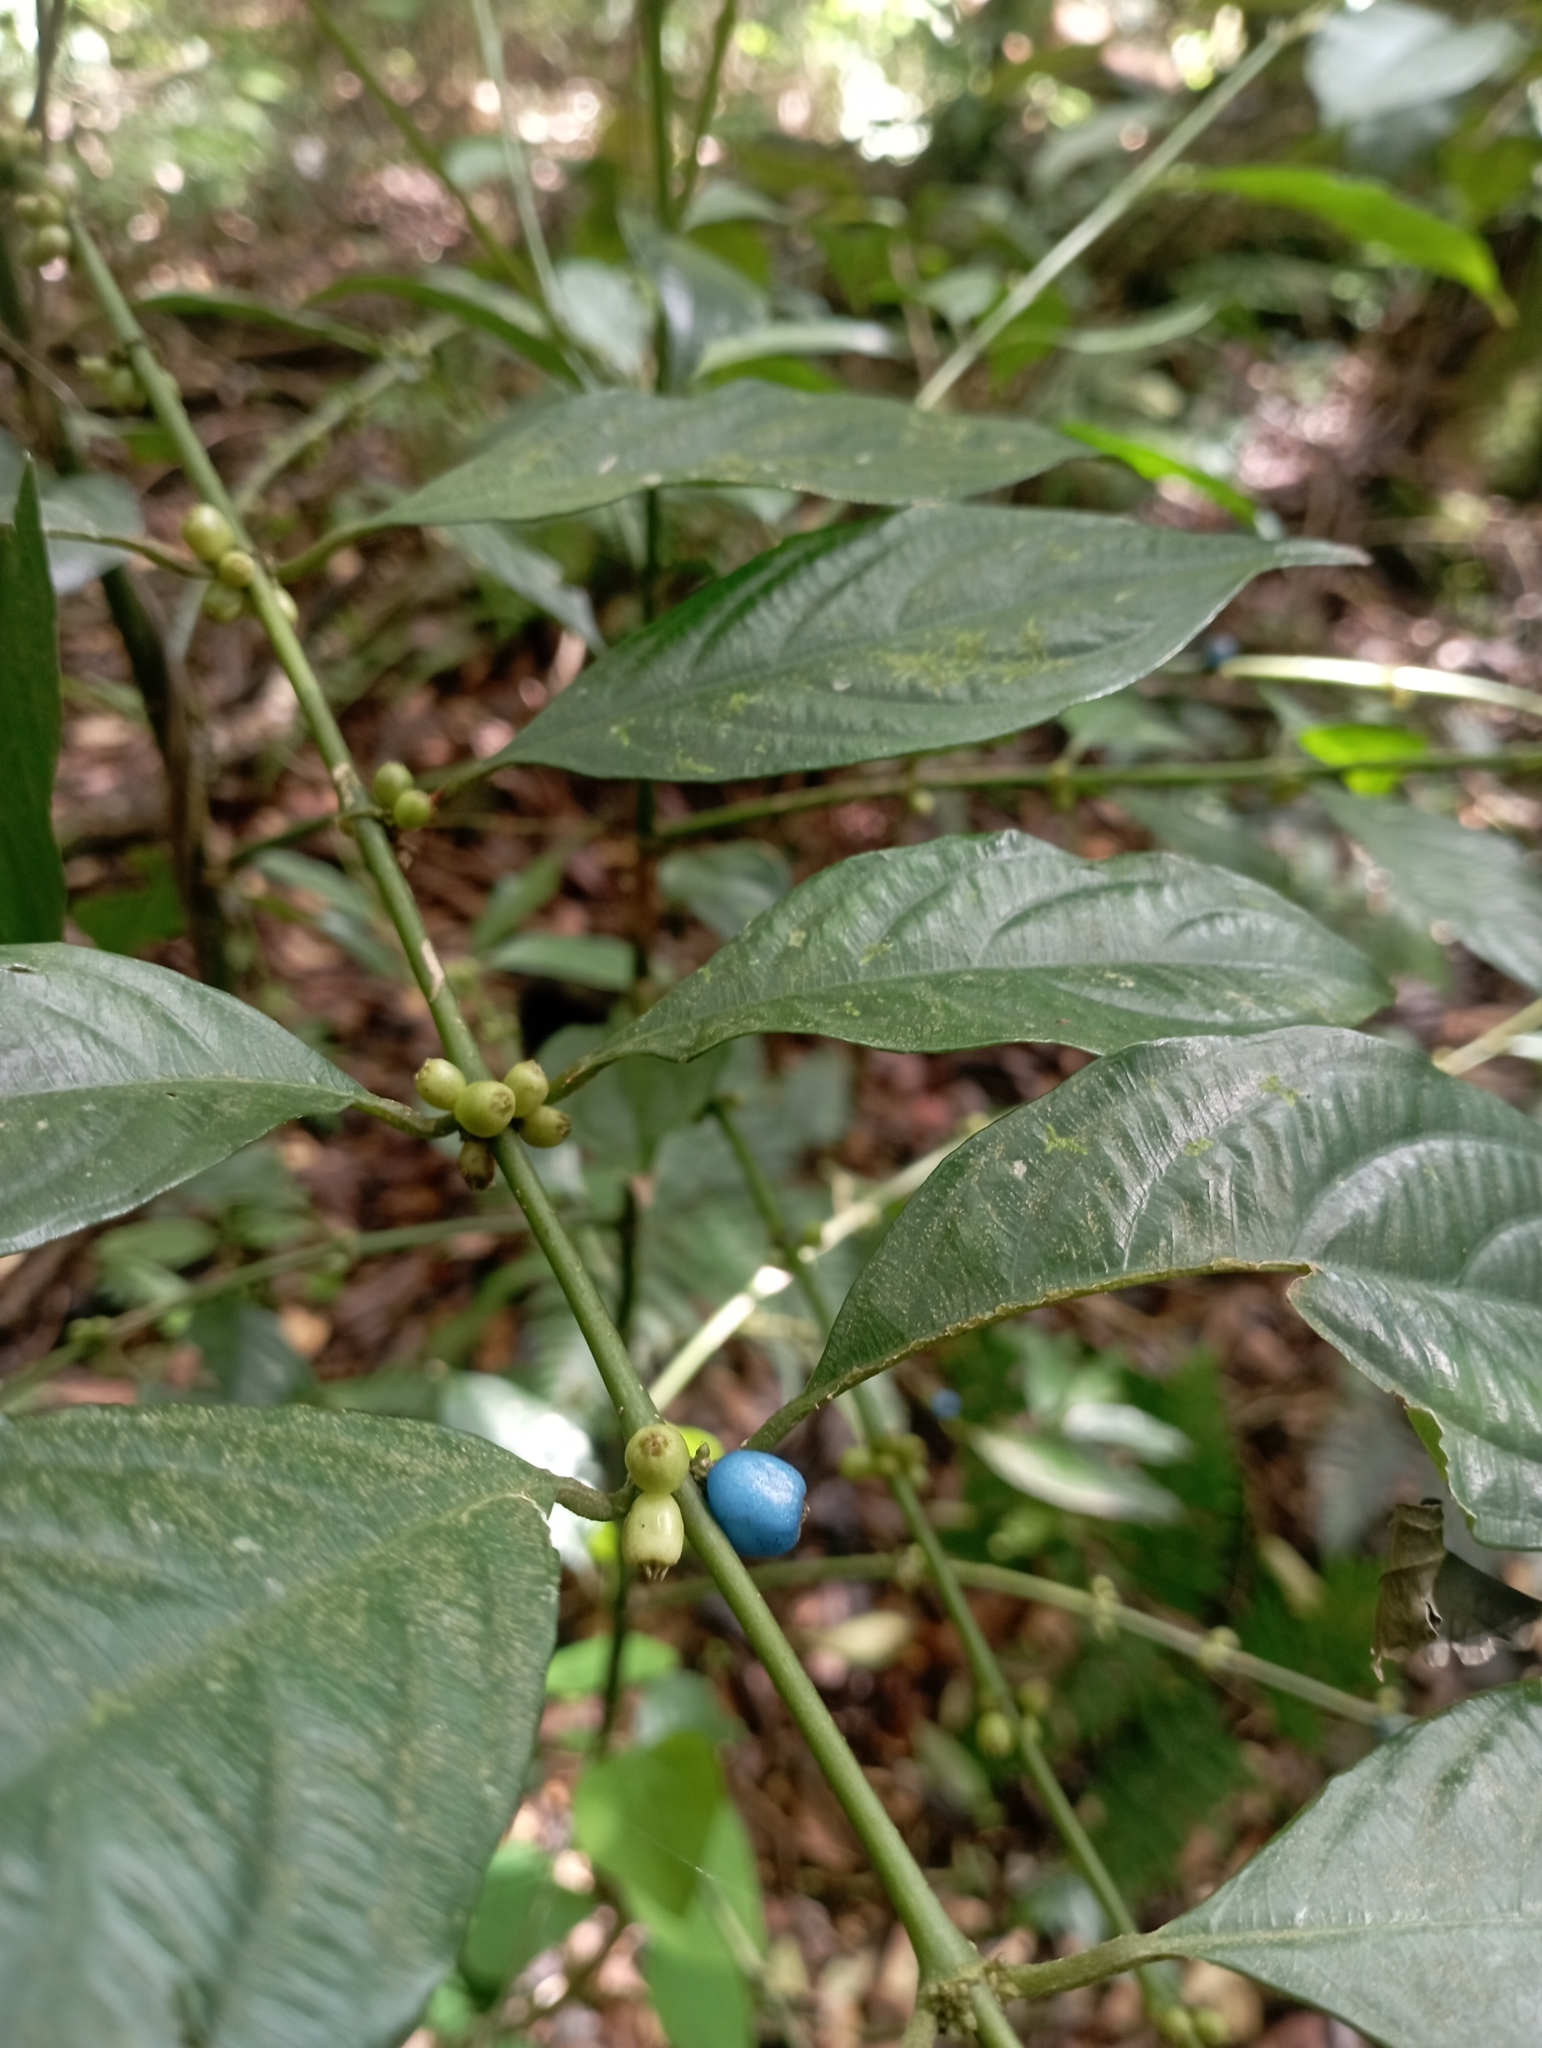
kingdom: Plantae
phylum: Tracheophyta
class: Magnoliopsida
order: Gentianales
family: Rubiaceae
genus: Lasianthus
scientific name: Lasianthus fordii
